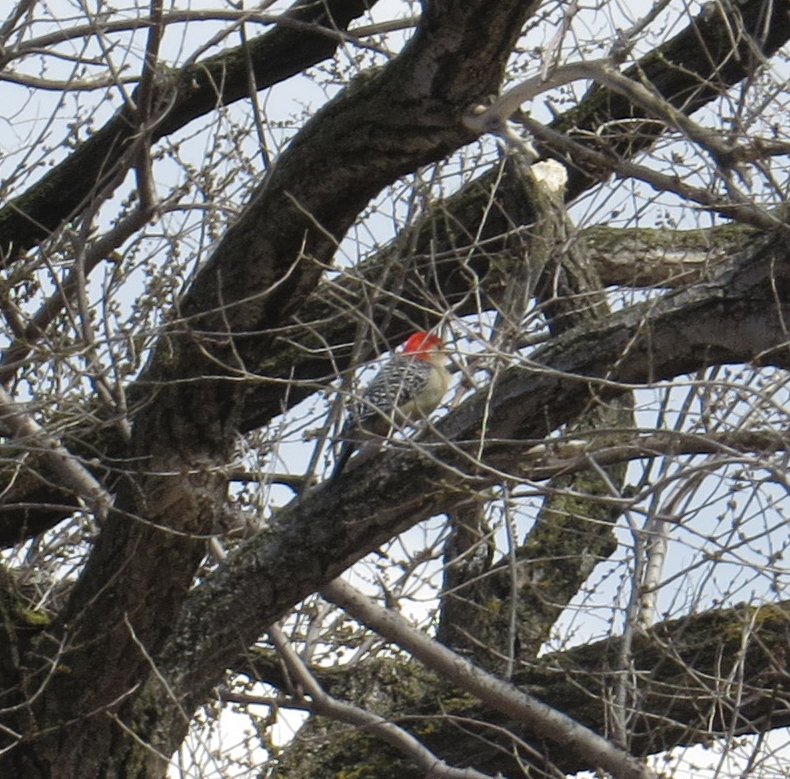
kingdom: Animalia
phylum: Chordata
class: Aves
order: Piciformes
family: Picidae
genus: Melanerpes
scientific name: Melanerpes carolinus
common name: Red-bellied woodpecker
